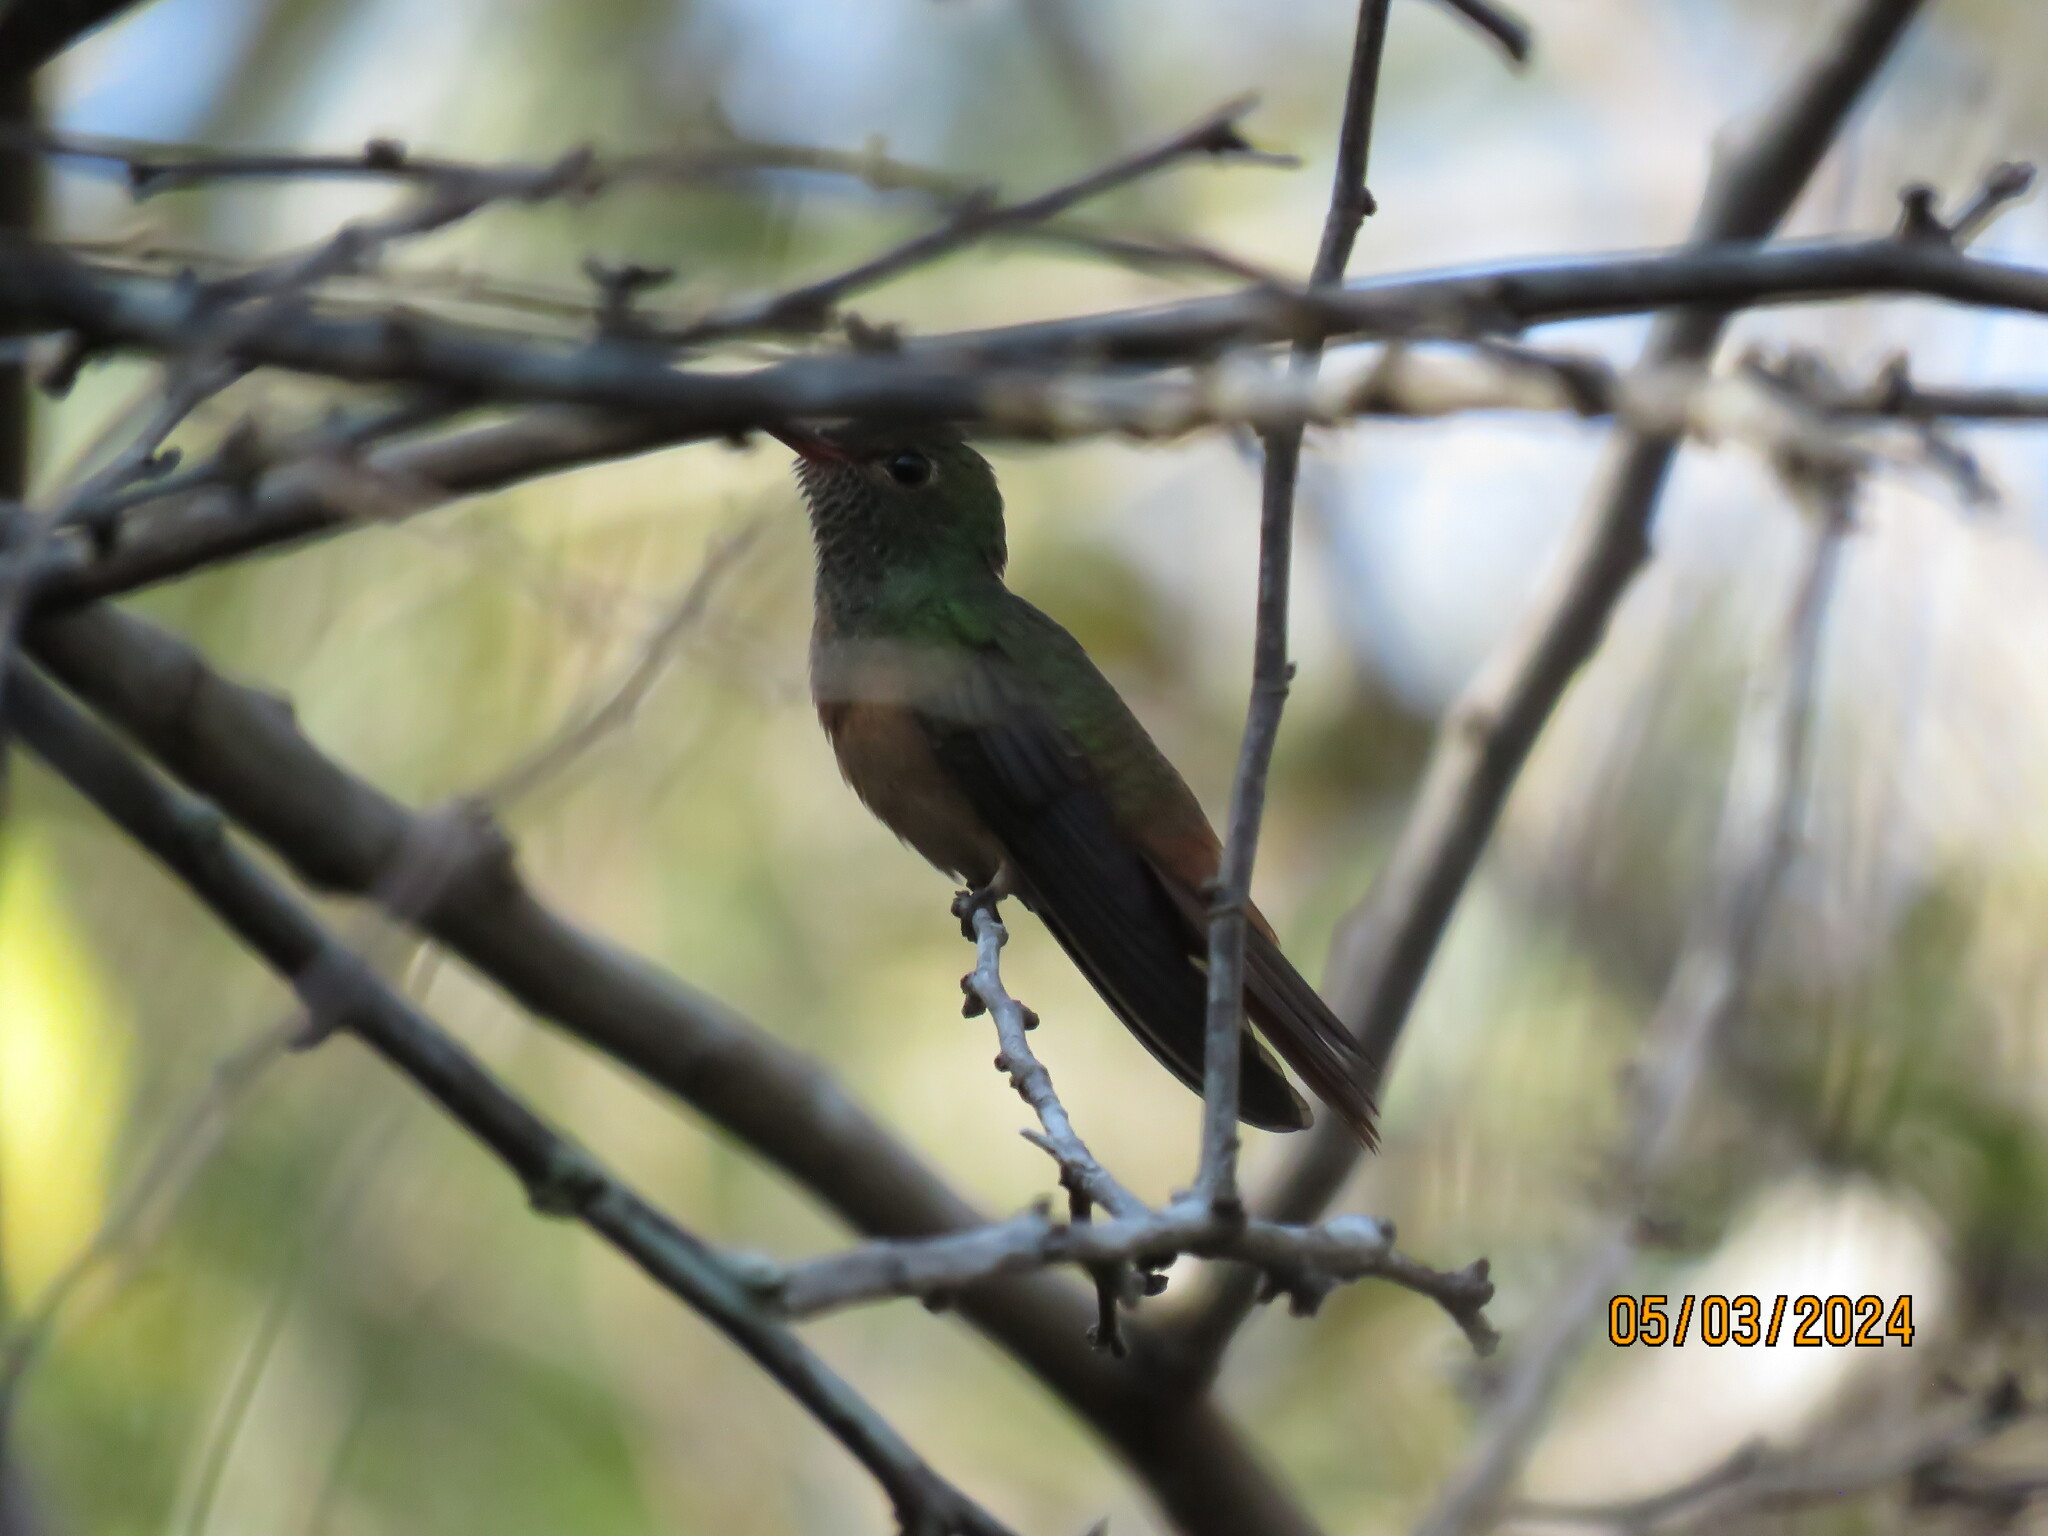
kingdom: Animalia
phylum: Chordata
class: Aves
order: Apodiformes
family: Trochilidae
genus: Amazilia
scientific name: Amazilia yucatanensis
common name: Buff-bellied hummingbird
